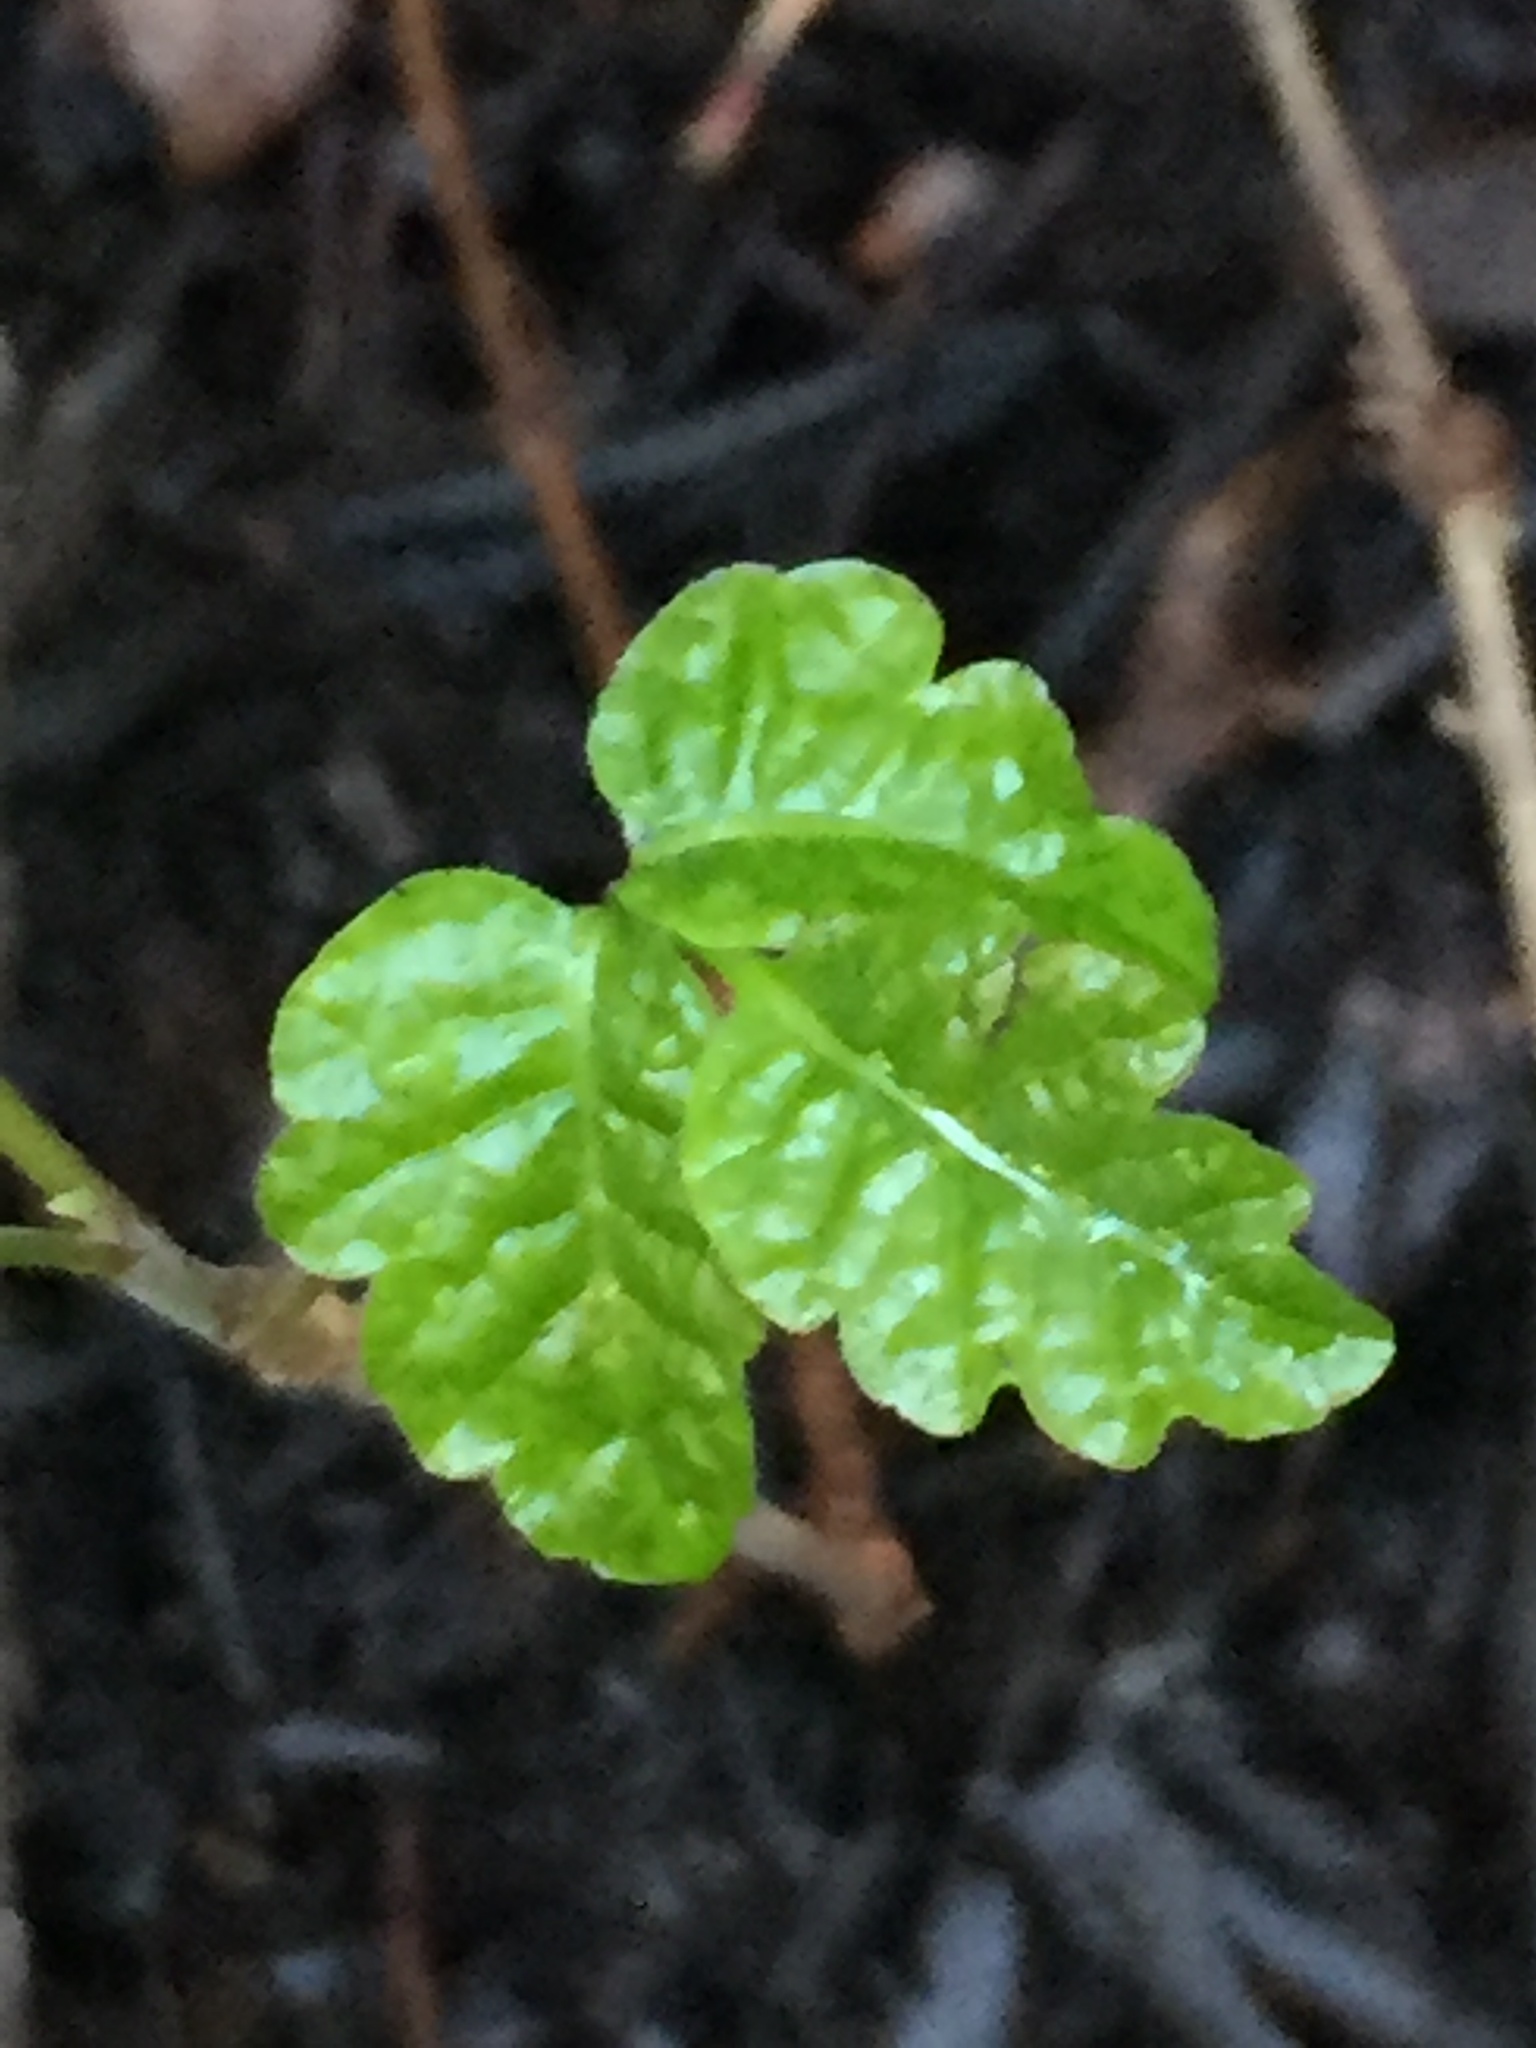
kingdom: Plantae
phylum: Tracheophyta
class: Magnoliopsida
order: Sapindales
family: Anacardiaceae
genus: Toxicodendron
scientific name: Toxicodendron diversilobum
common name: Pacific poison-oak
